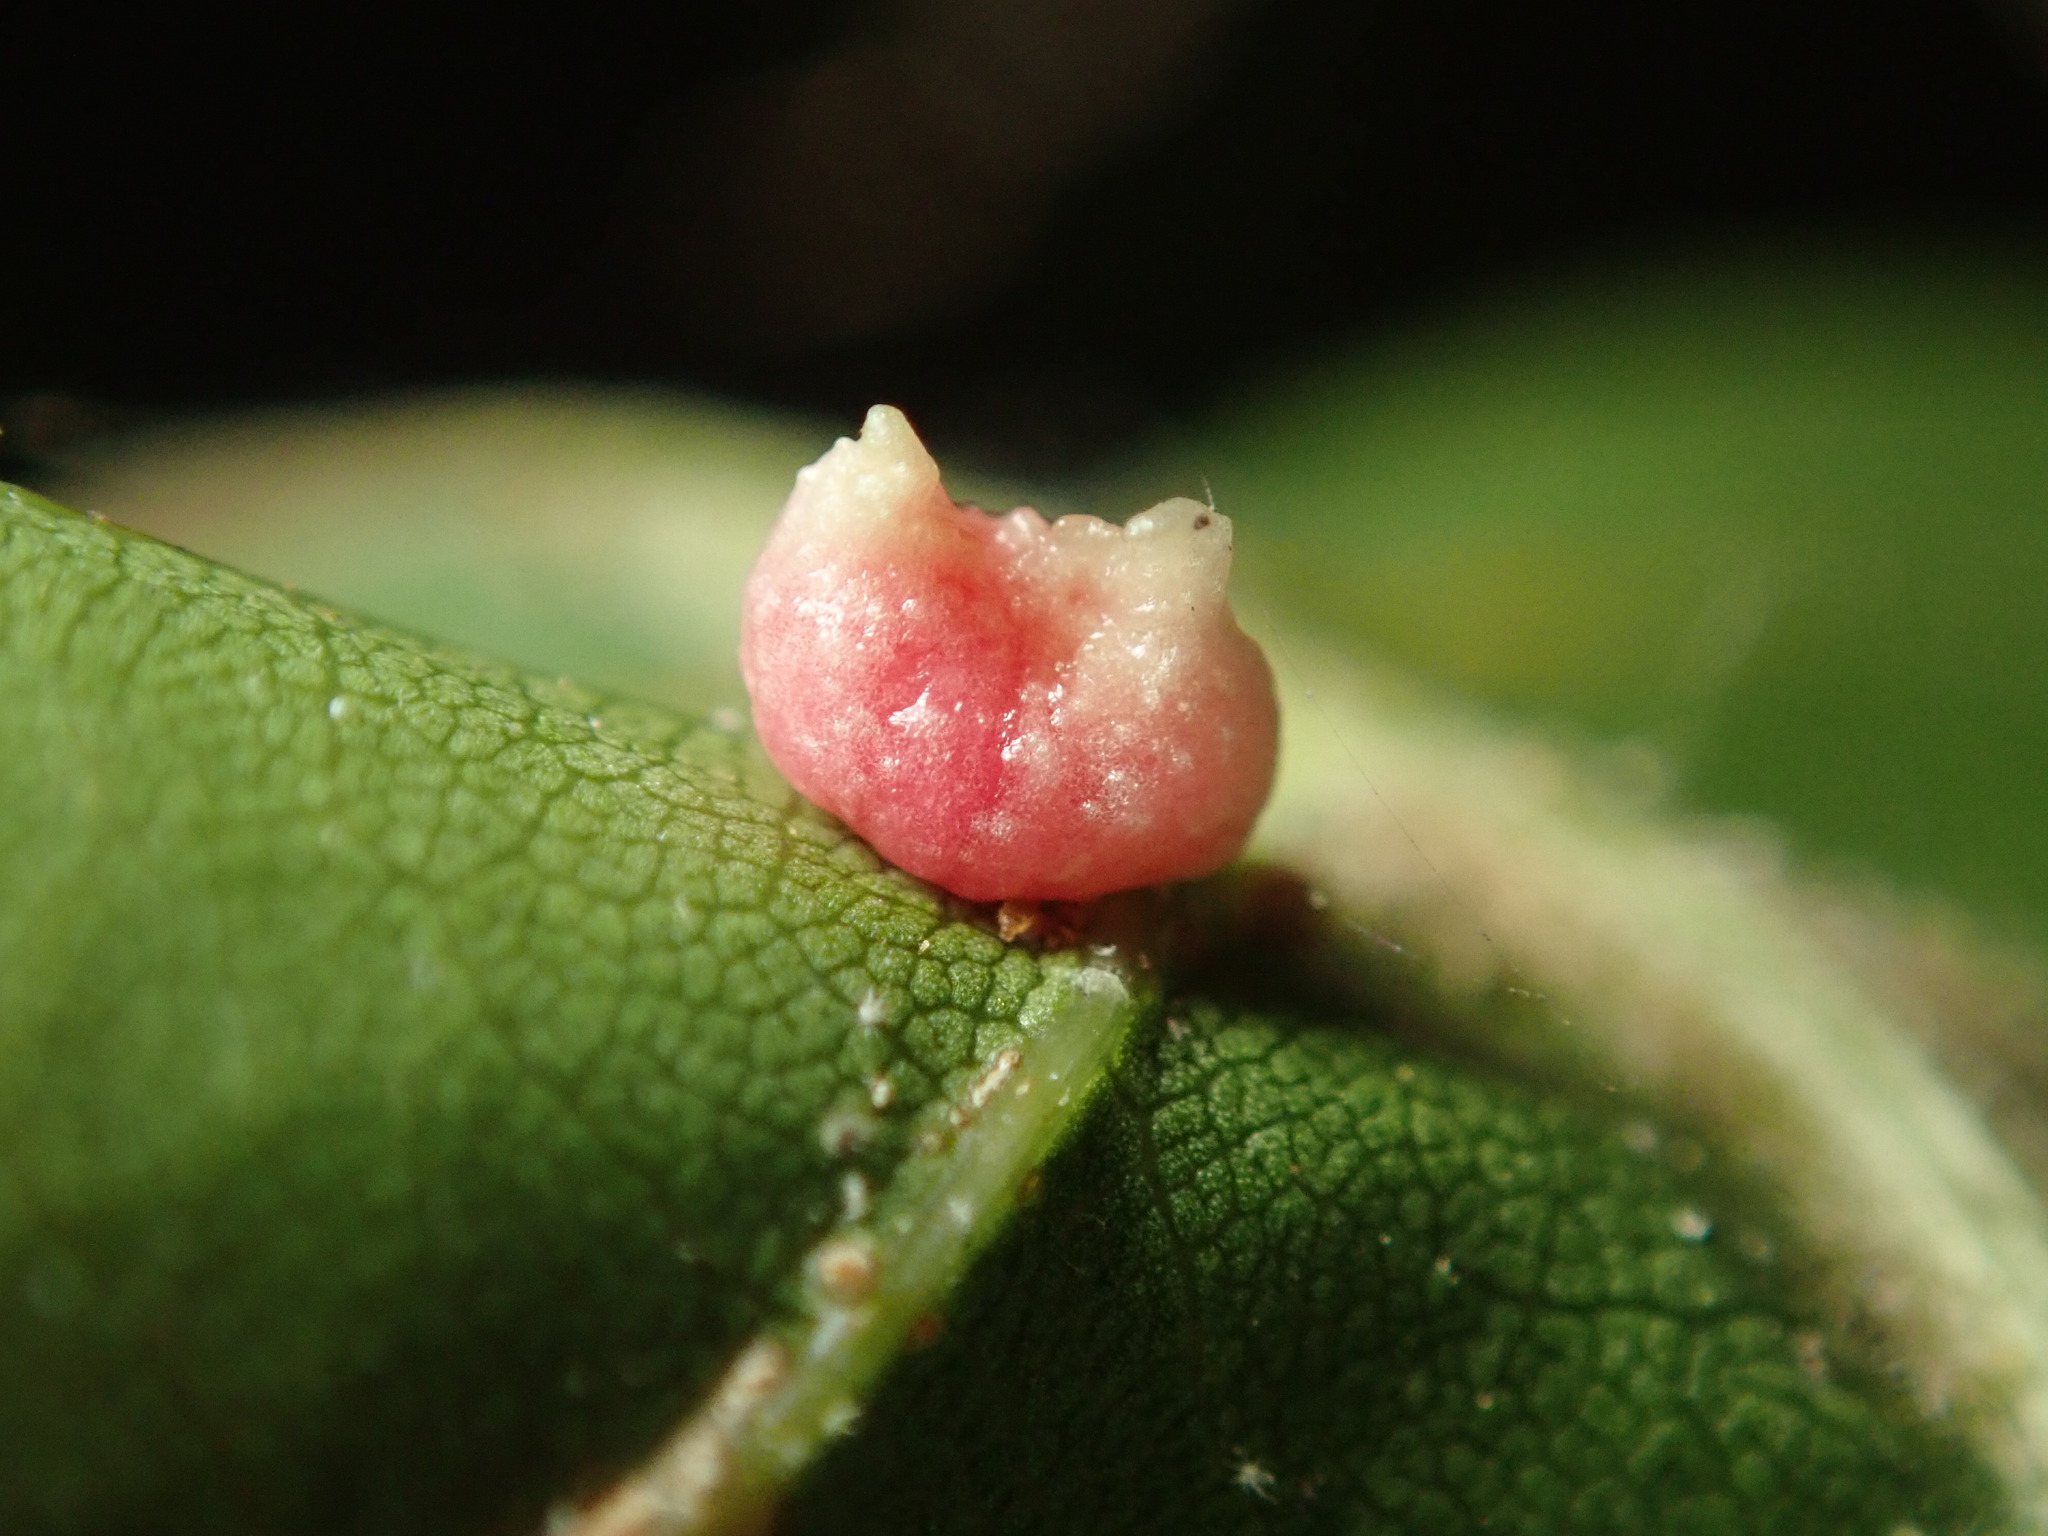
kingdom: Animalia
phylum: Arthropoda
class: Insecta
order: Hymenoptera
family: Cynipidae
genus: Dryocosmus
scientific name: Dryocosmus
